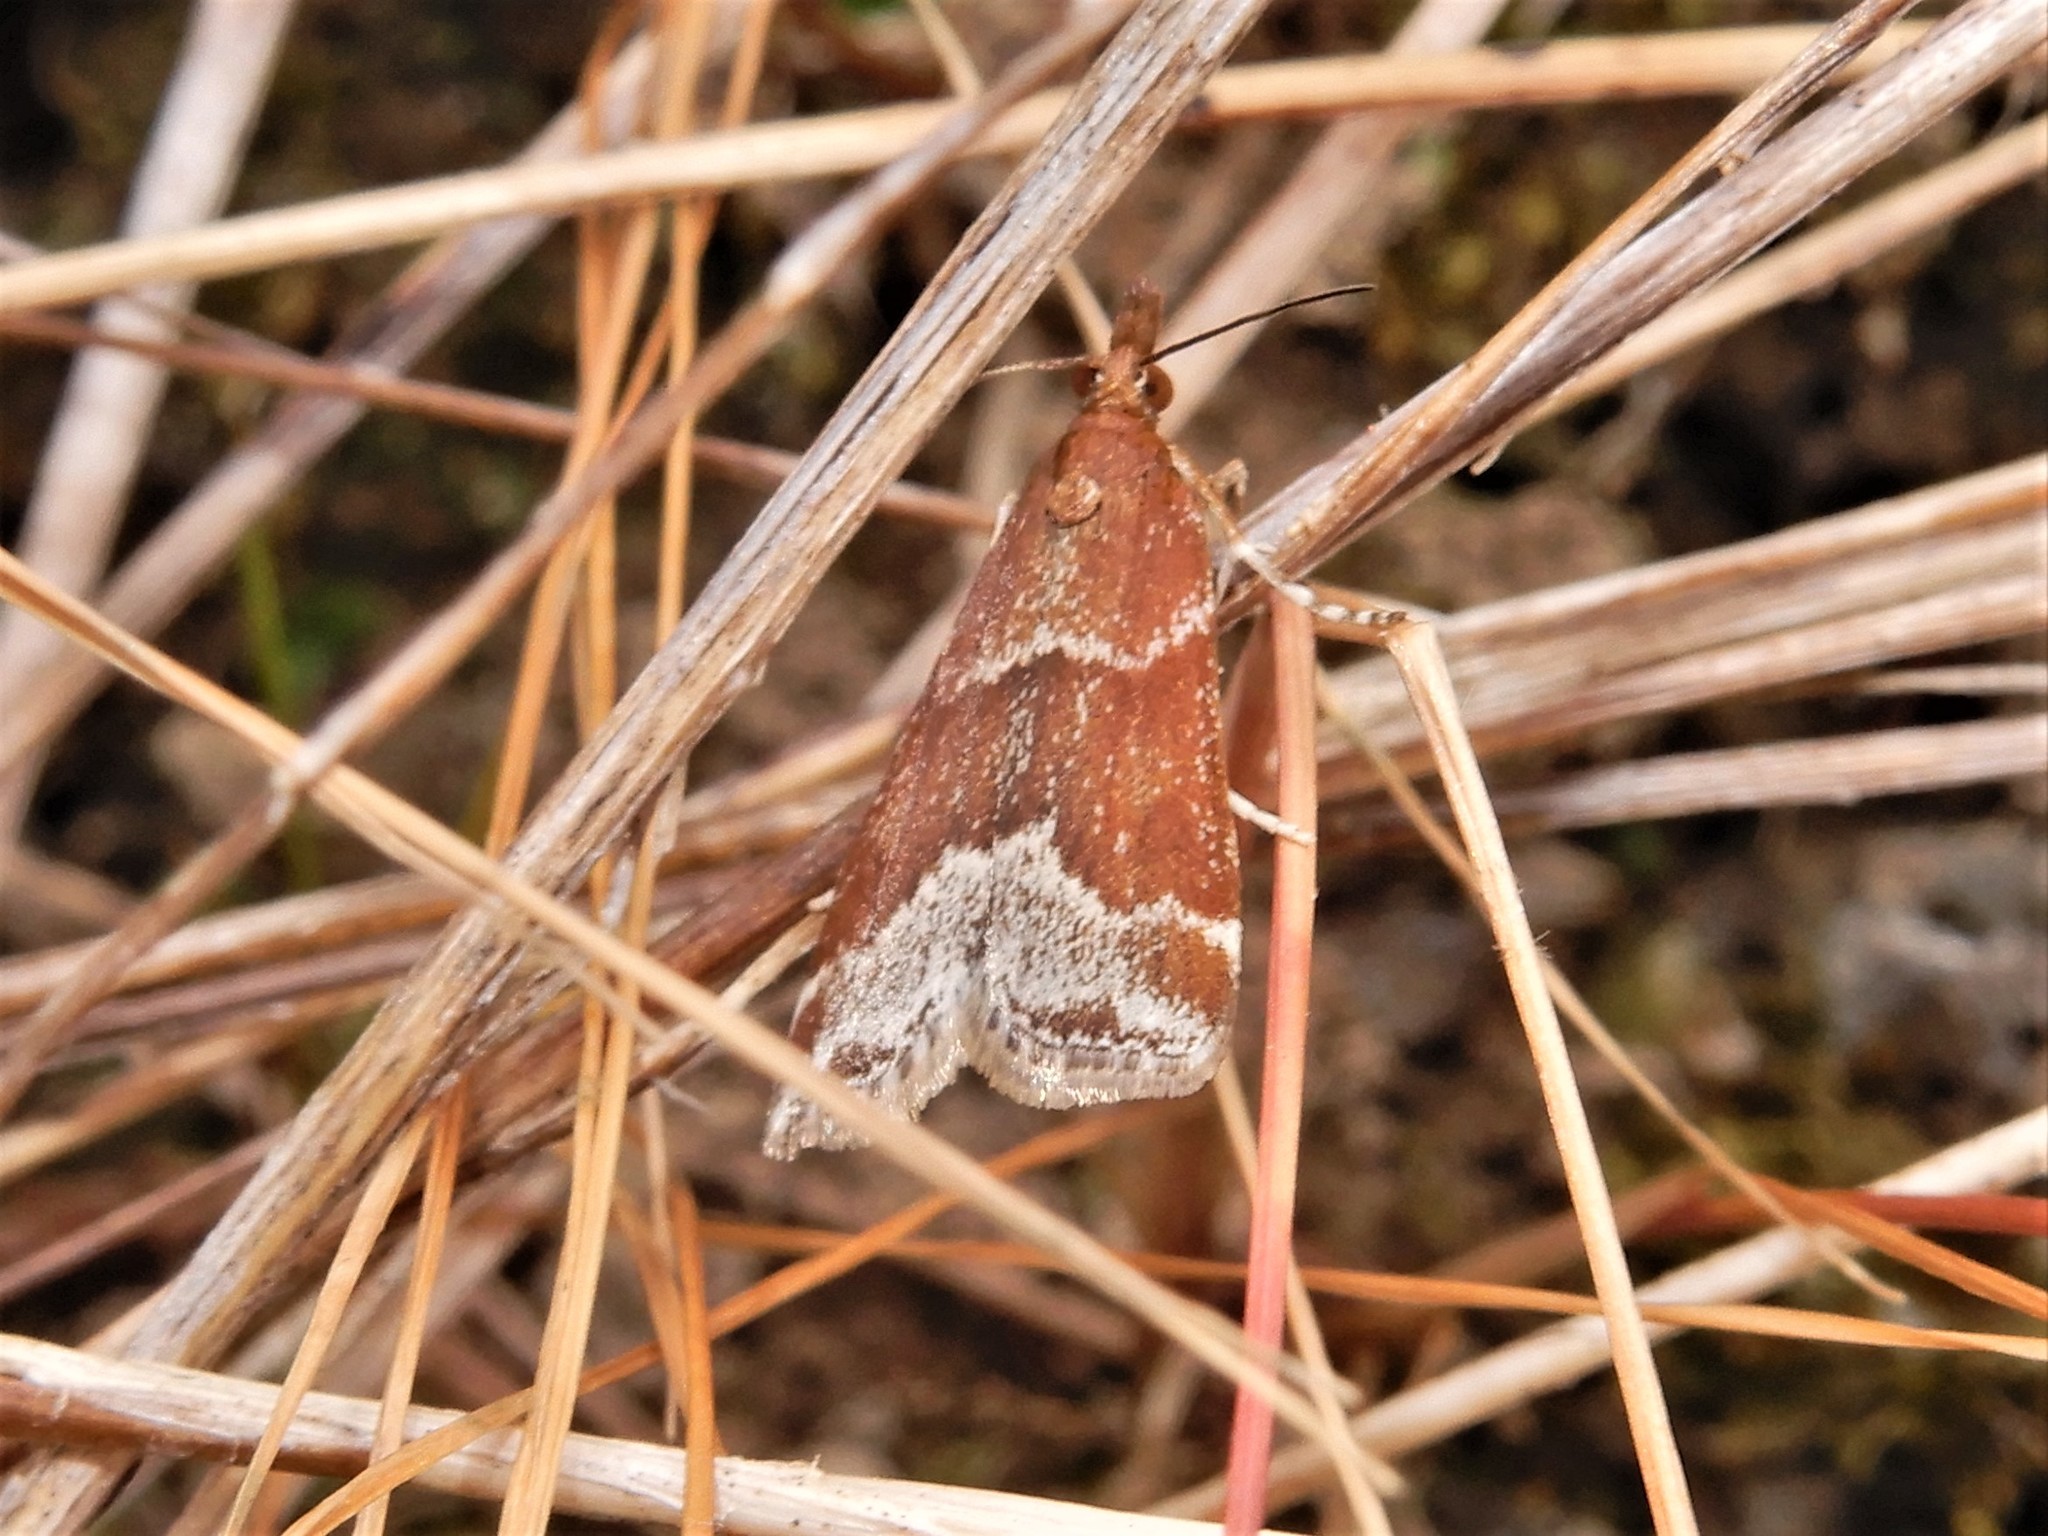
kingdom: Animalia
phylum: Arthropoda
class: Insecta
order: Lepidoptera
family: Crambidae
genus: Eudonia
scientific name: Eudonia feredayi
